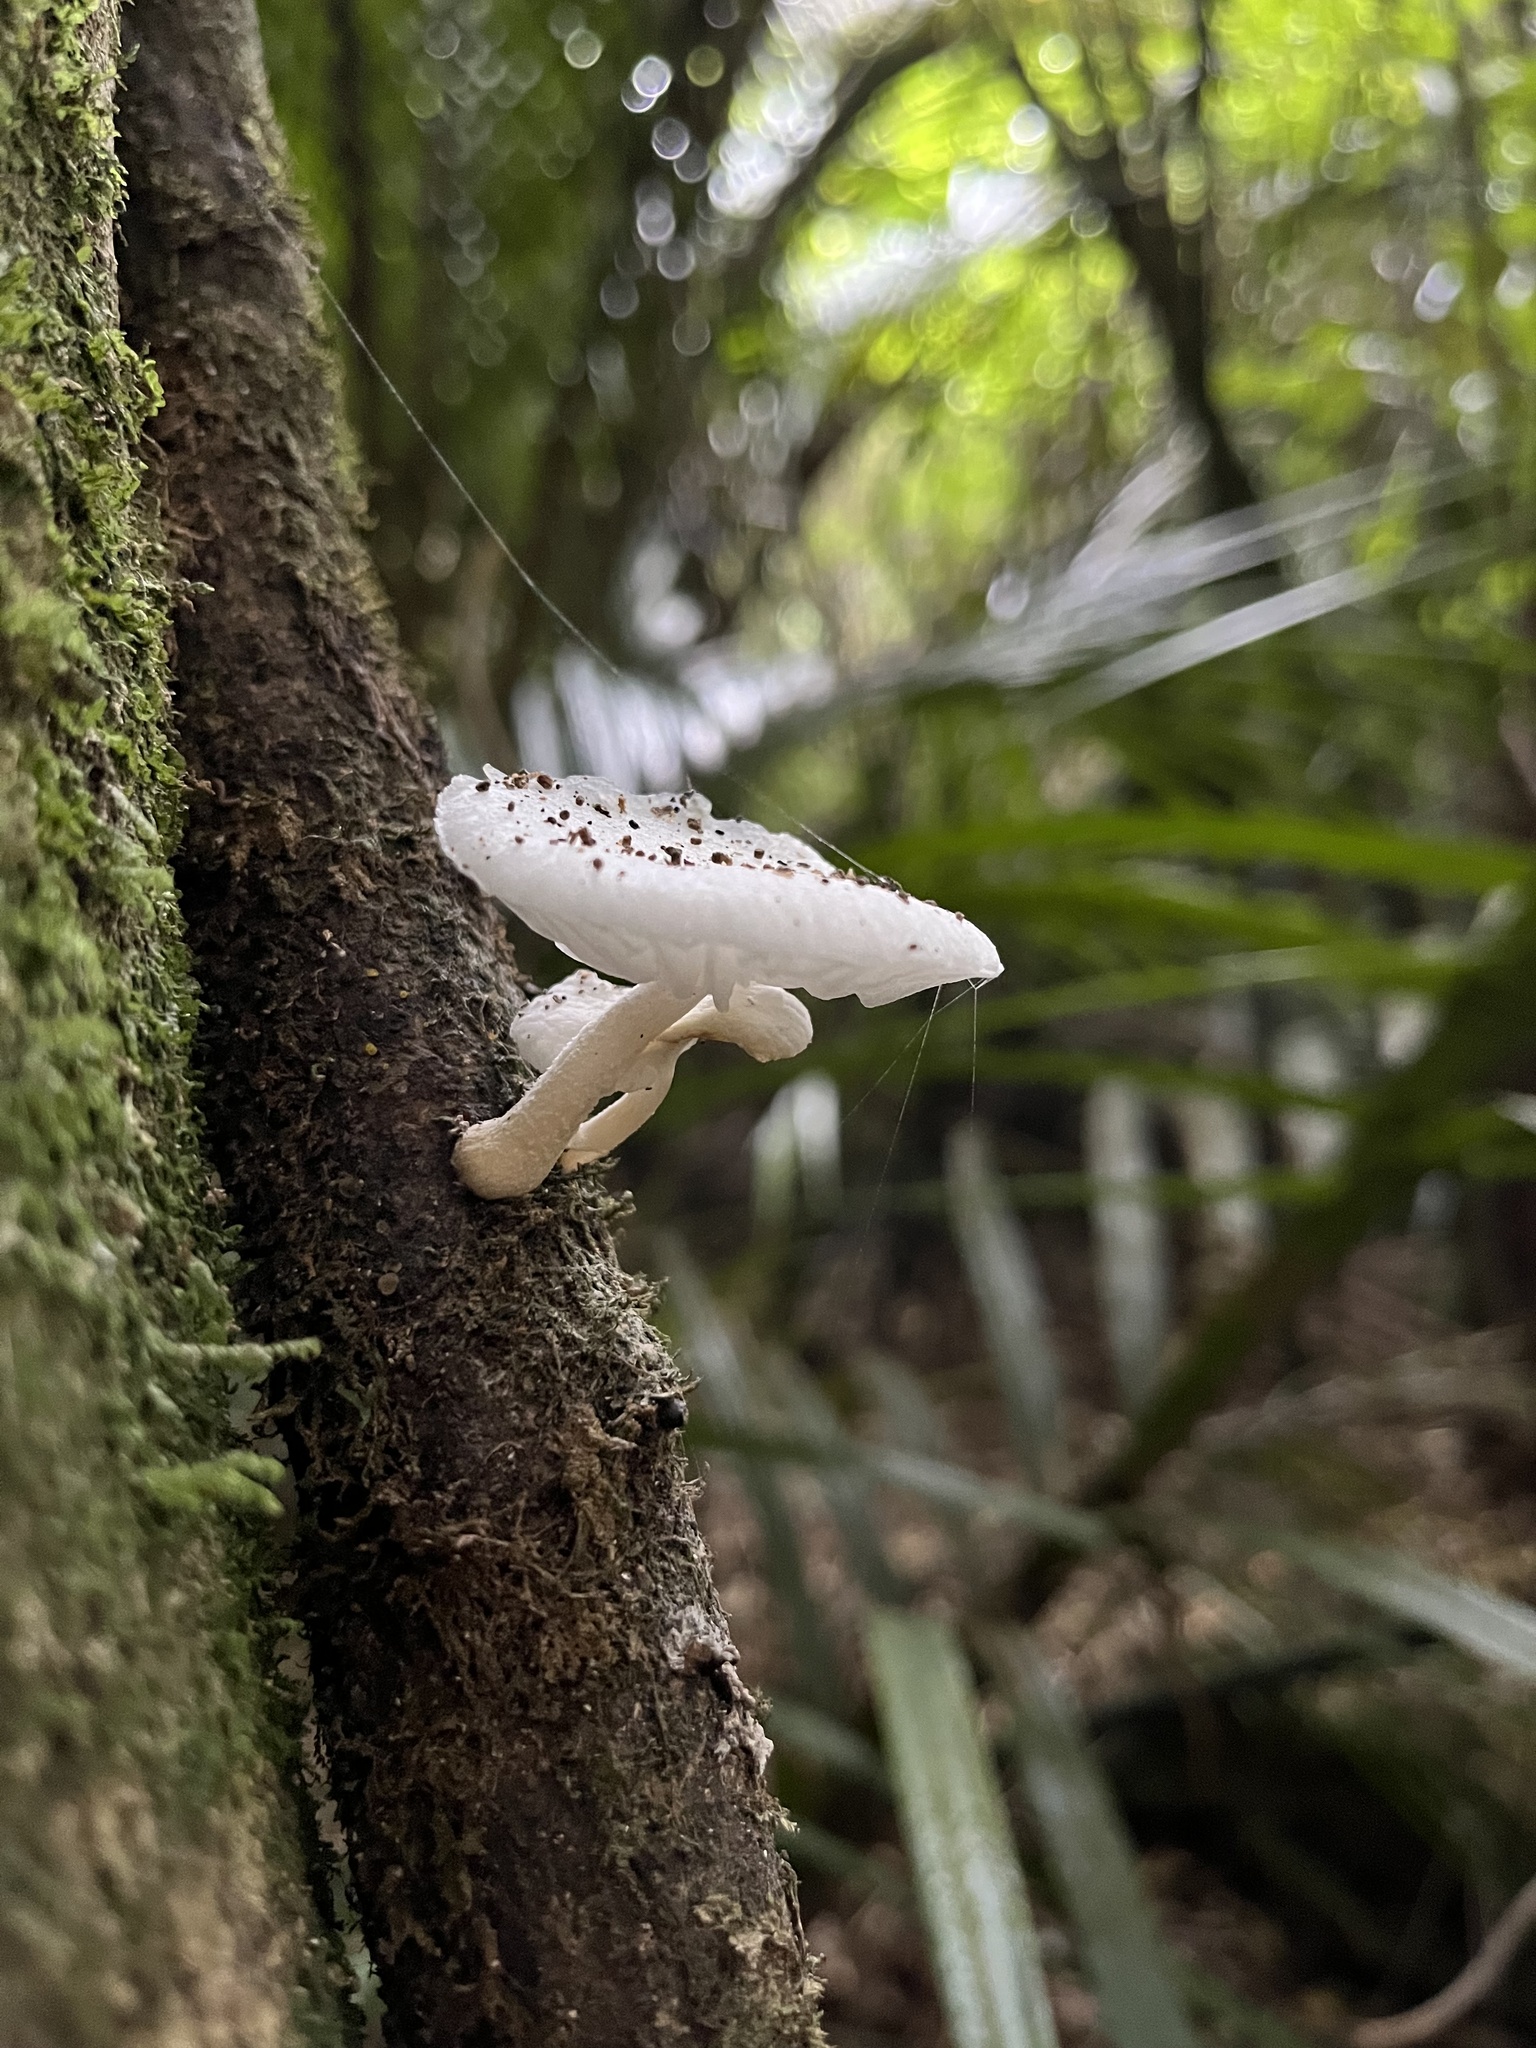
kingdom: Fungi
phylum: Basidiomycota
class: Agaricomycetes
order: Agaricales
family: Physalacriaceae
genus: Oudemansiella
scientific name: Oudemansiella australis
